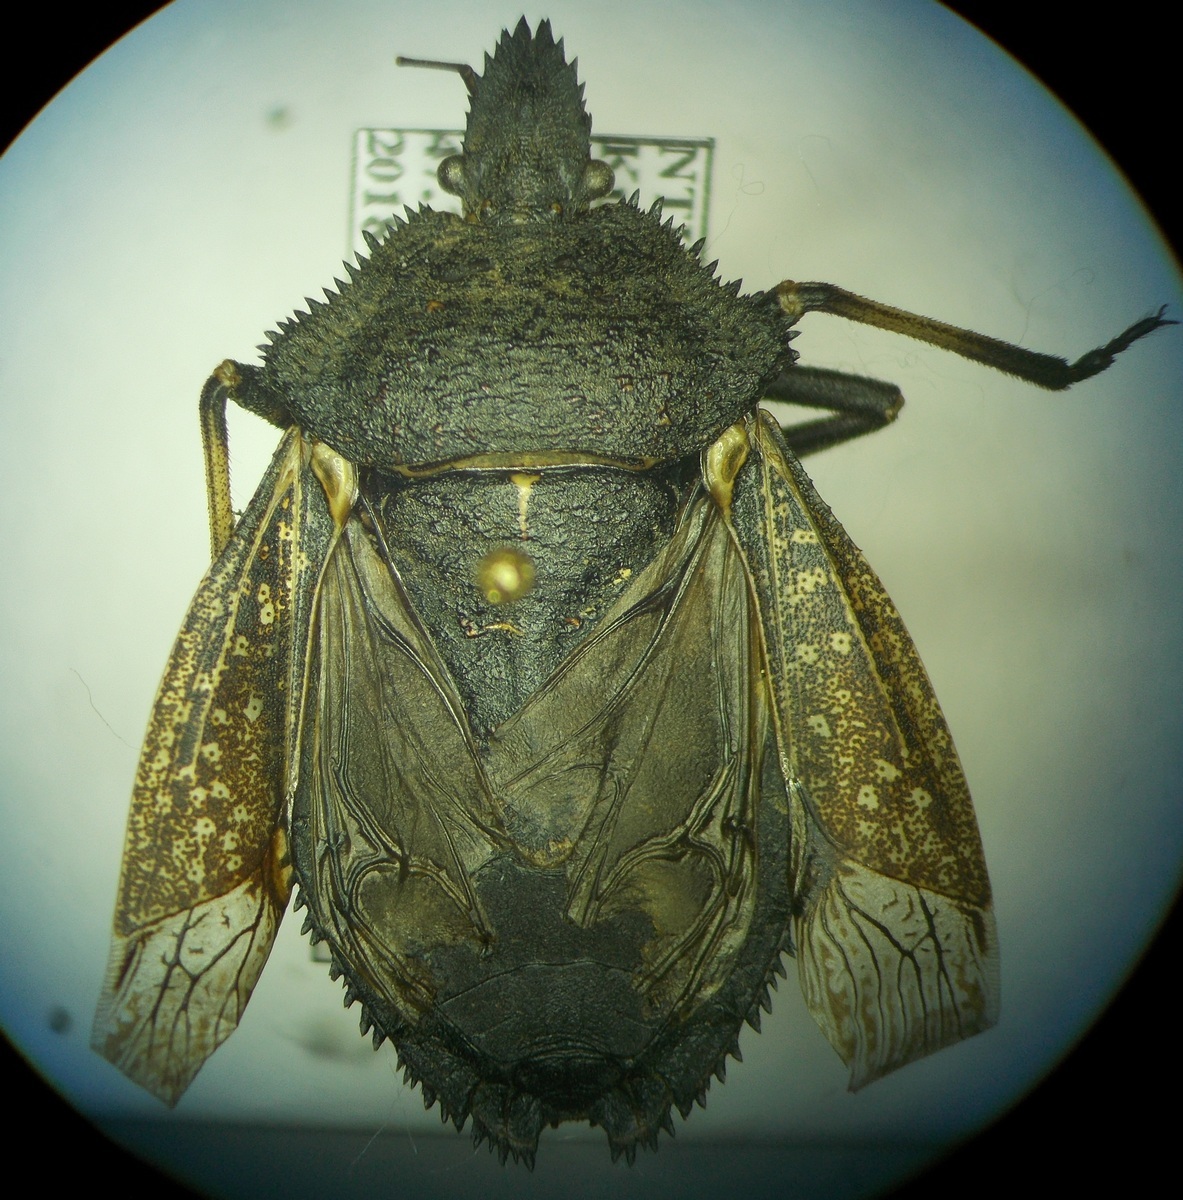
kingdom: Animalia
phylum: Arthropoda
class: Insecta
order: Hemiptera
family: Pentatomidae
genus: Mustha
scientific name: Mustha spinosula
